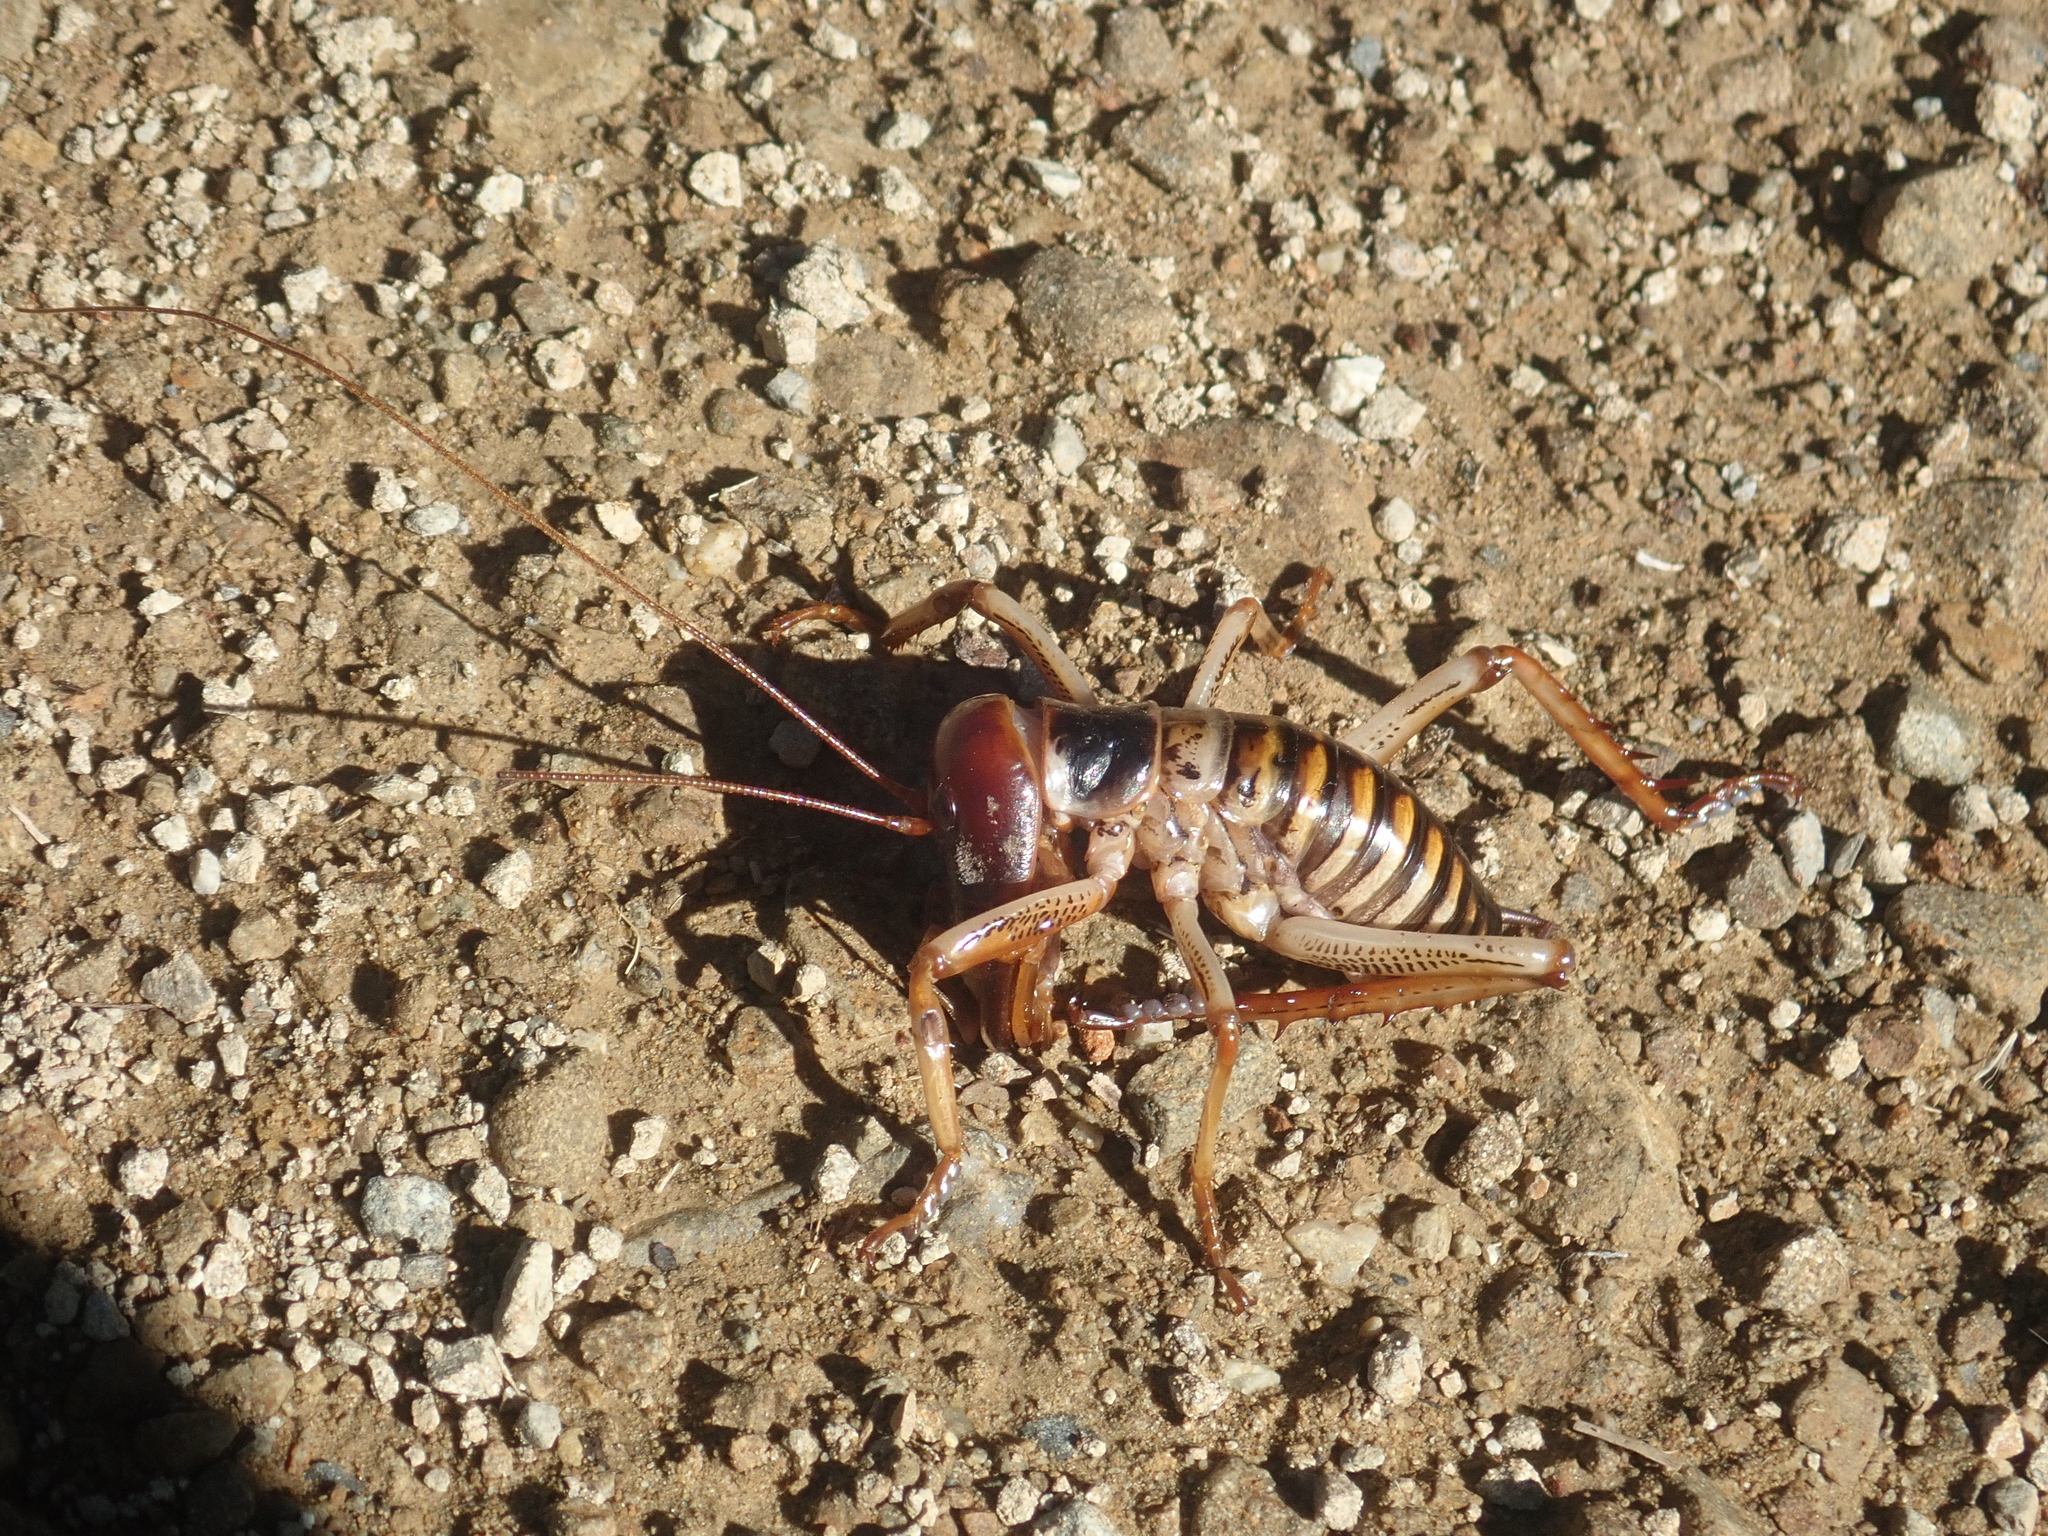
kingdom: Animalia
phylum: Arthropoda
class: Insecta
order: Orthoptera
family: Anostostomatidae
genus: Hemideina
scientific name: Hemideina crassidens
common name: Wellington tree weta
